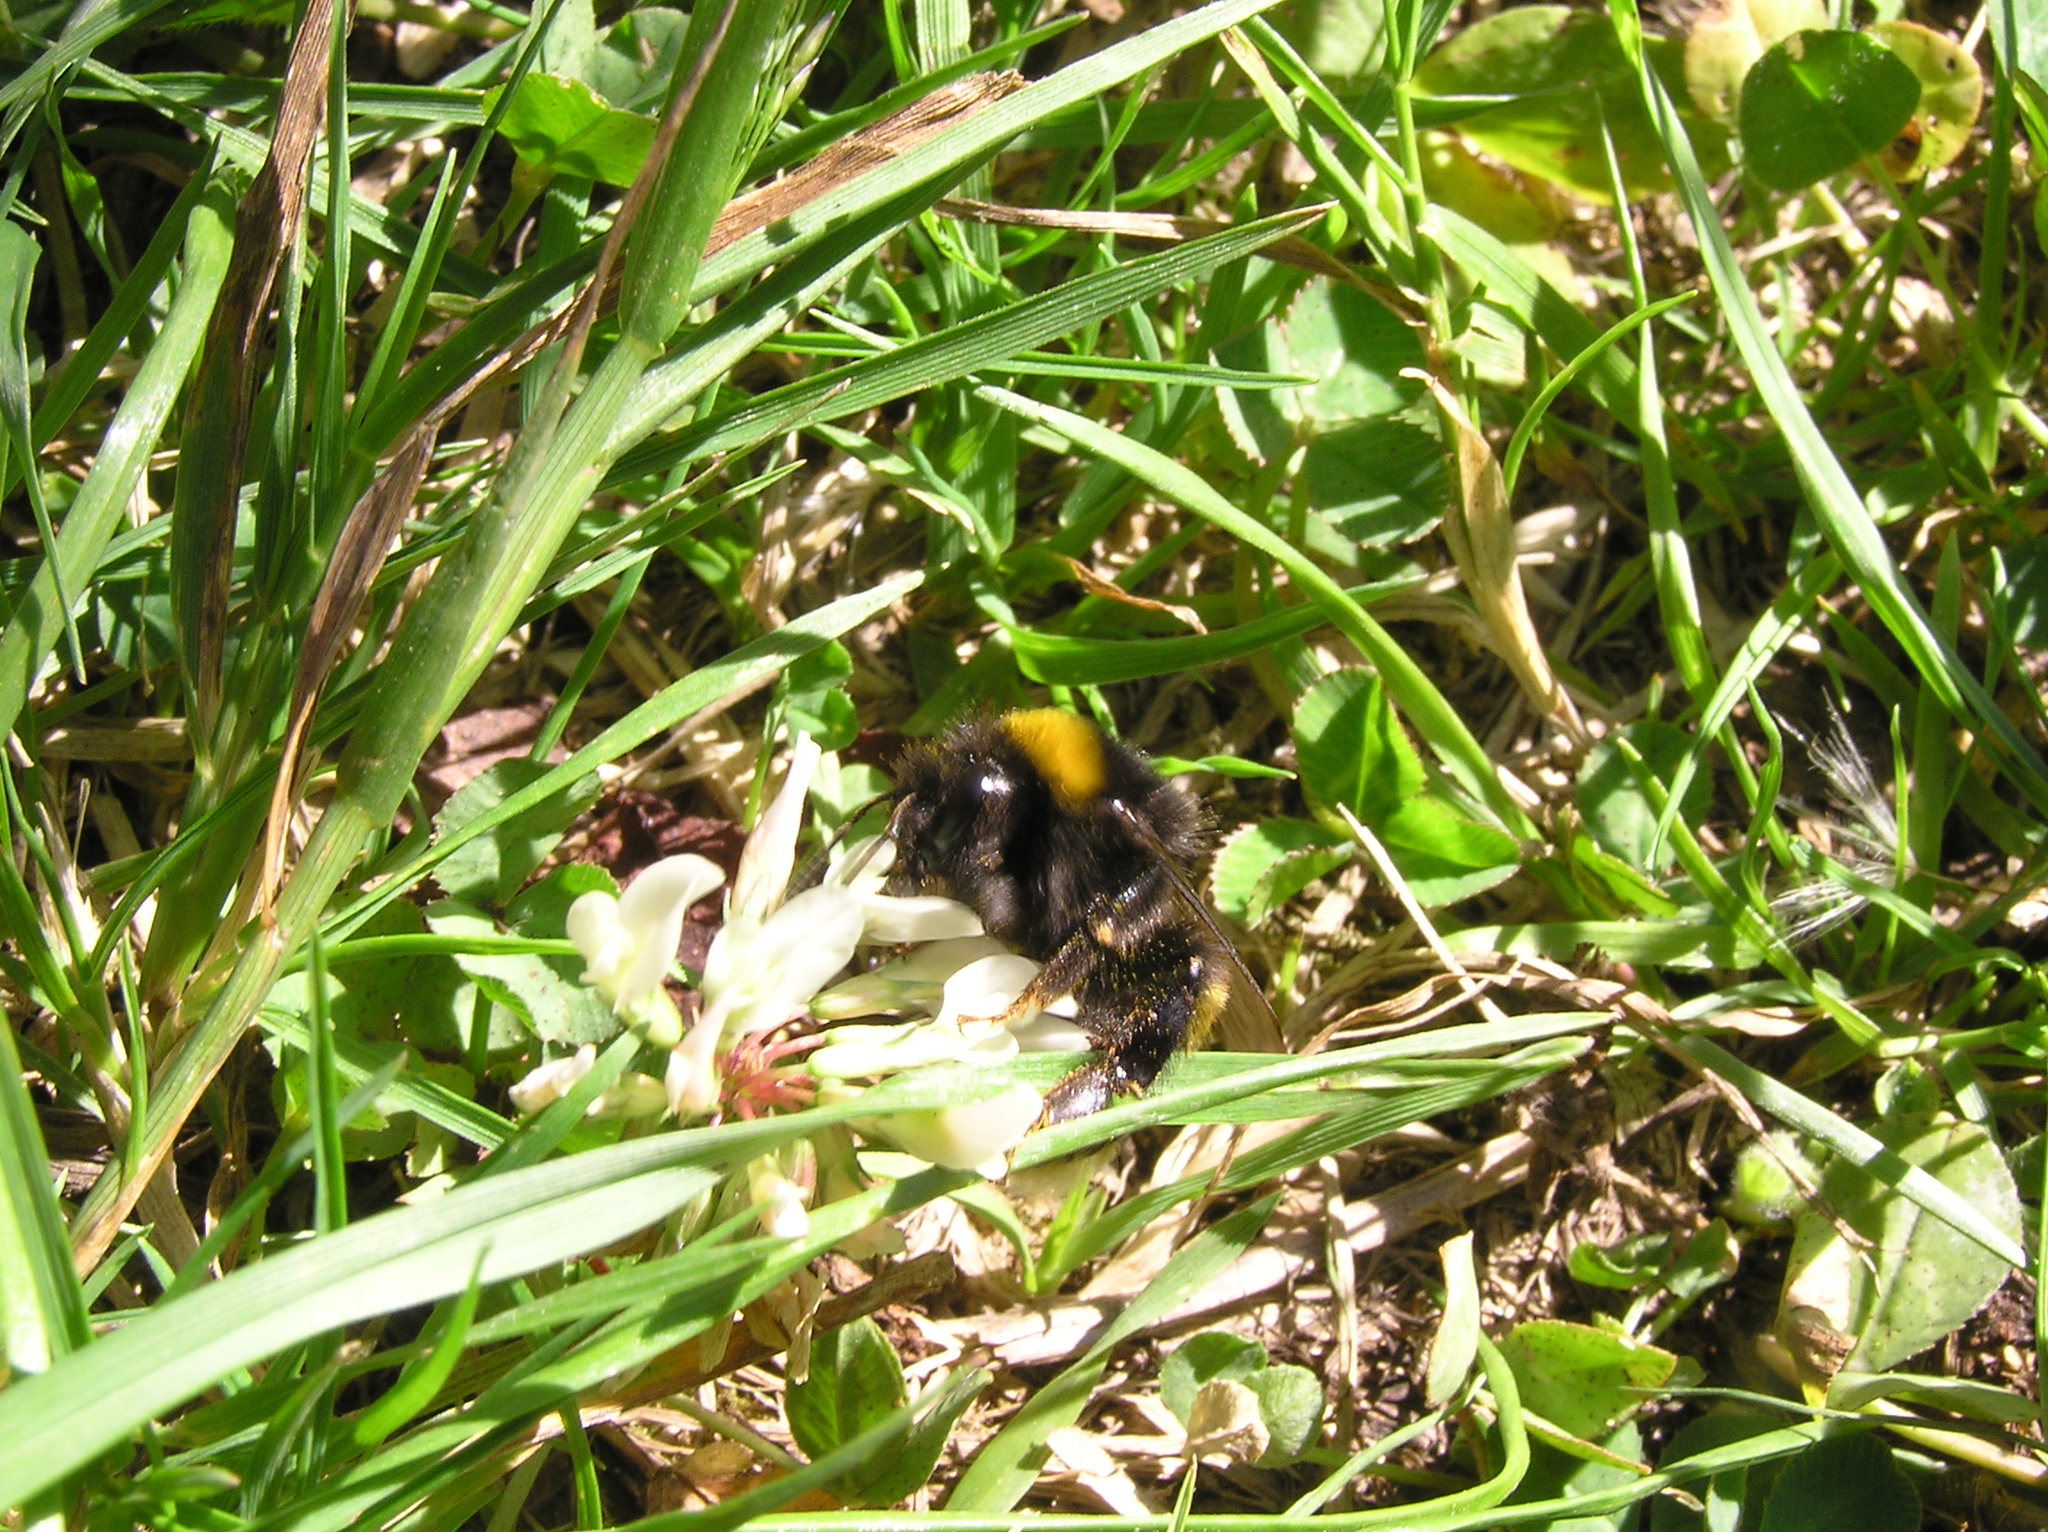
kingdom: Animalia
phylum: Arthropoda
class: Insecta
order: Hymenoptera
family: Apidae
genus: Bombus
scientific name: Bombus terrestris
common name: Buff-tailed bumblebee
